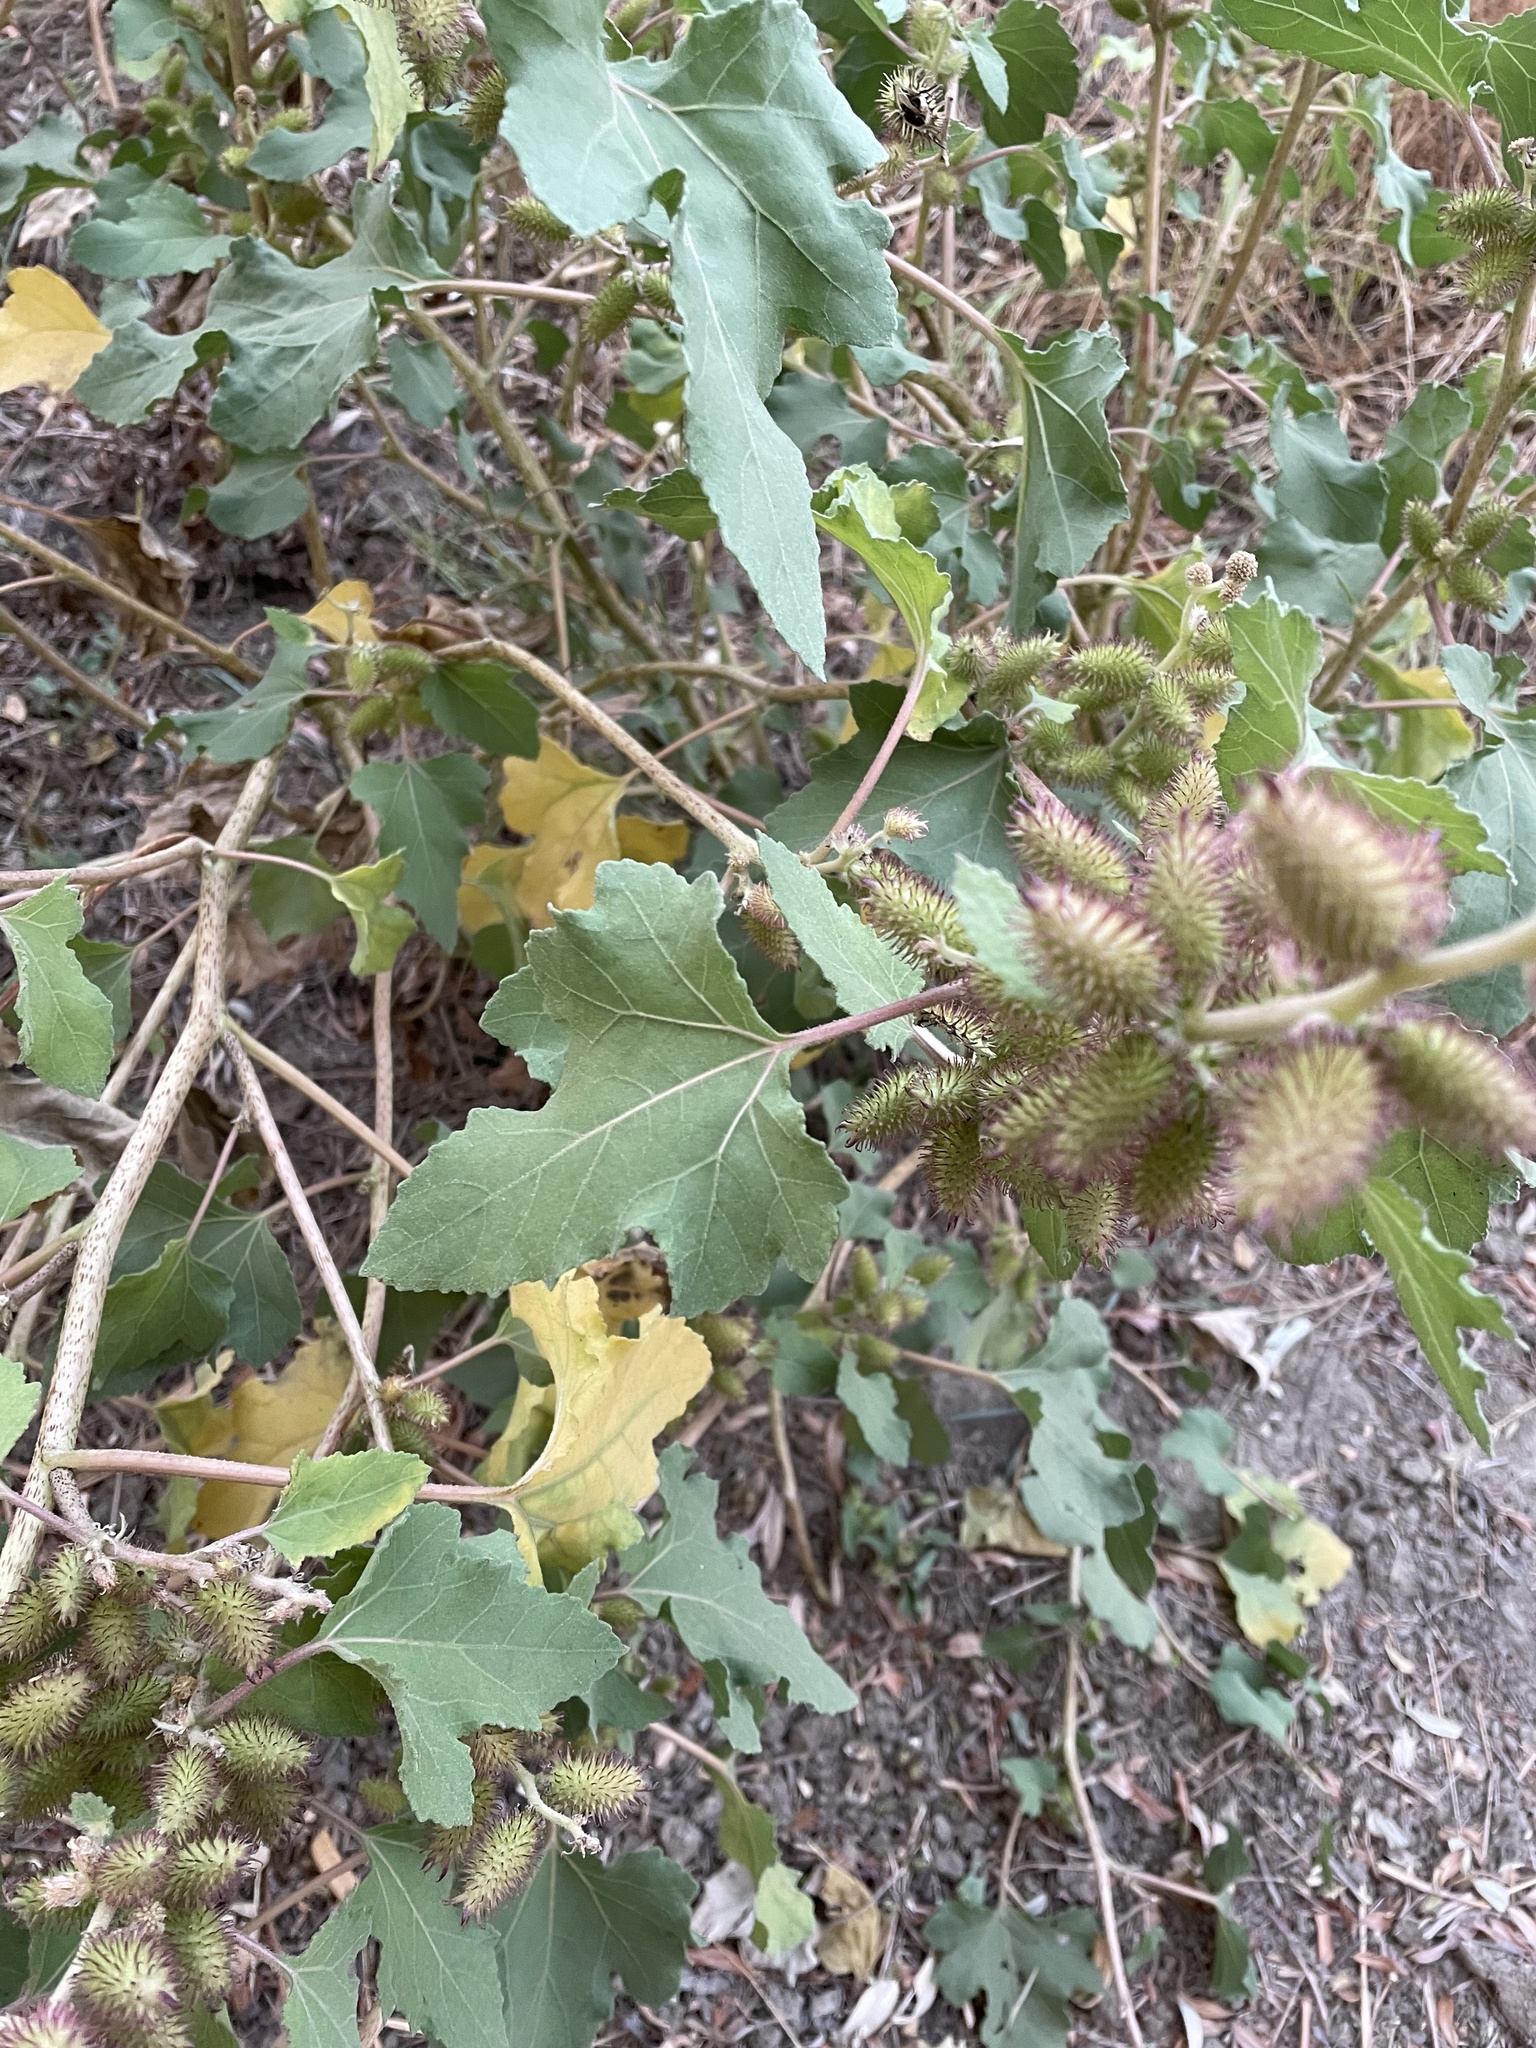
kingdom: Plantae
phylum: Tracheophyta
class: Magnoliopsida
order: Asterales
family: Asteraceae
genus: Xanthium
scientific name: Xanthium strumarium
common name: Rough cocklebur
